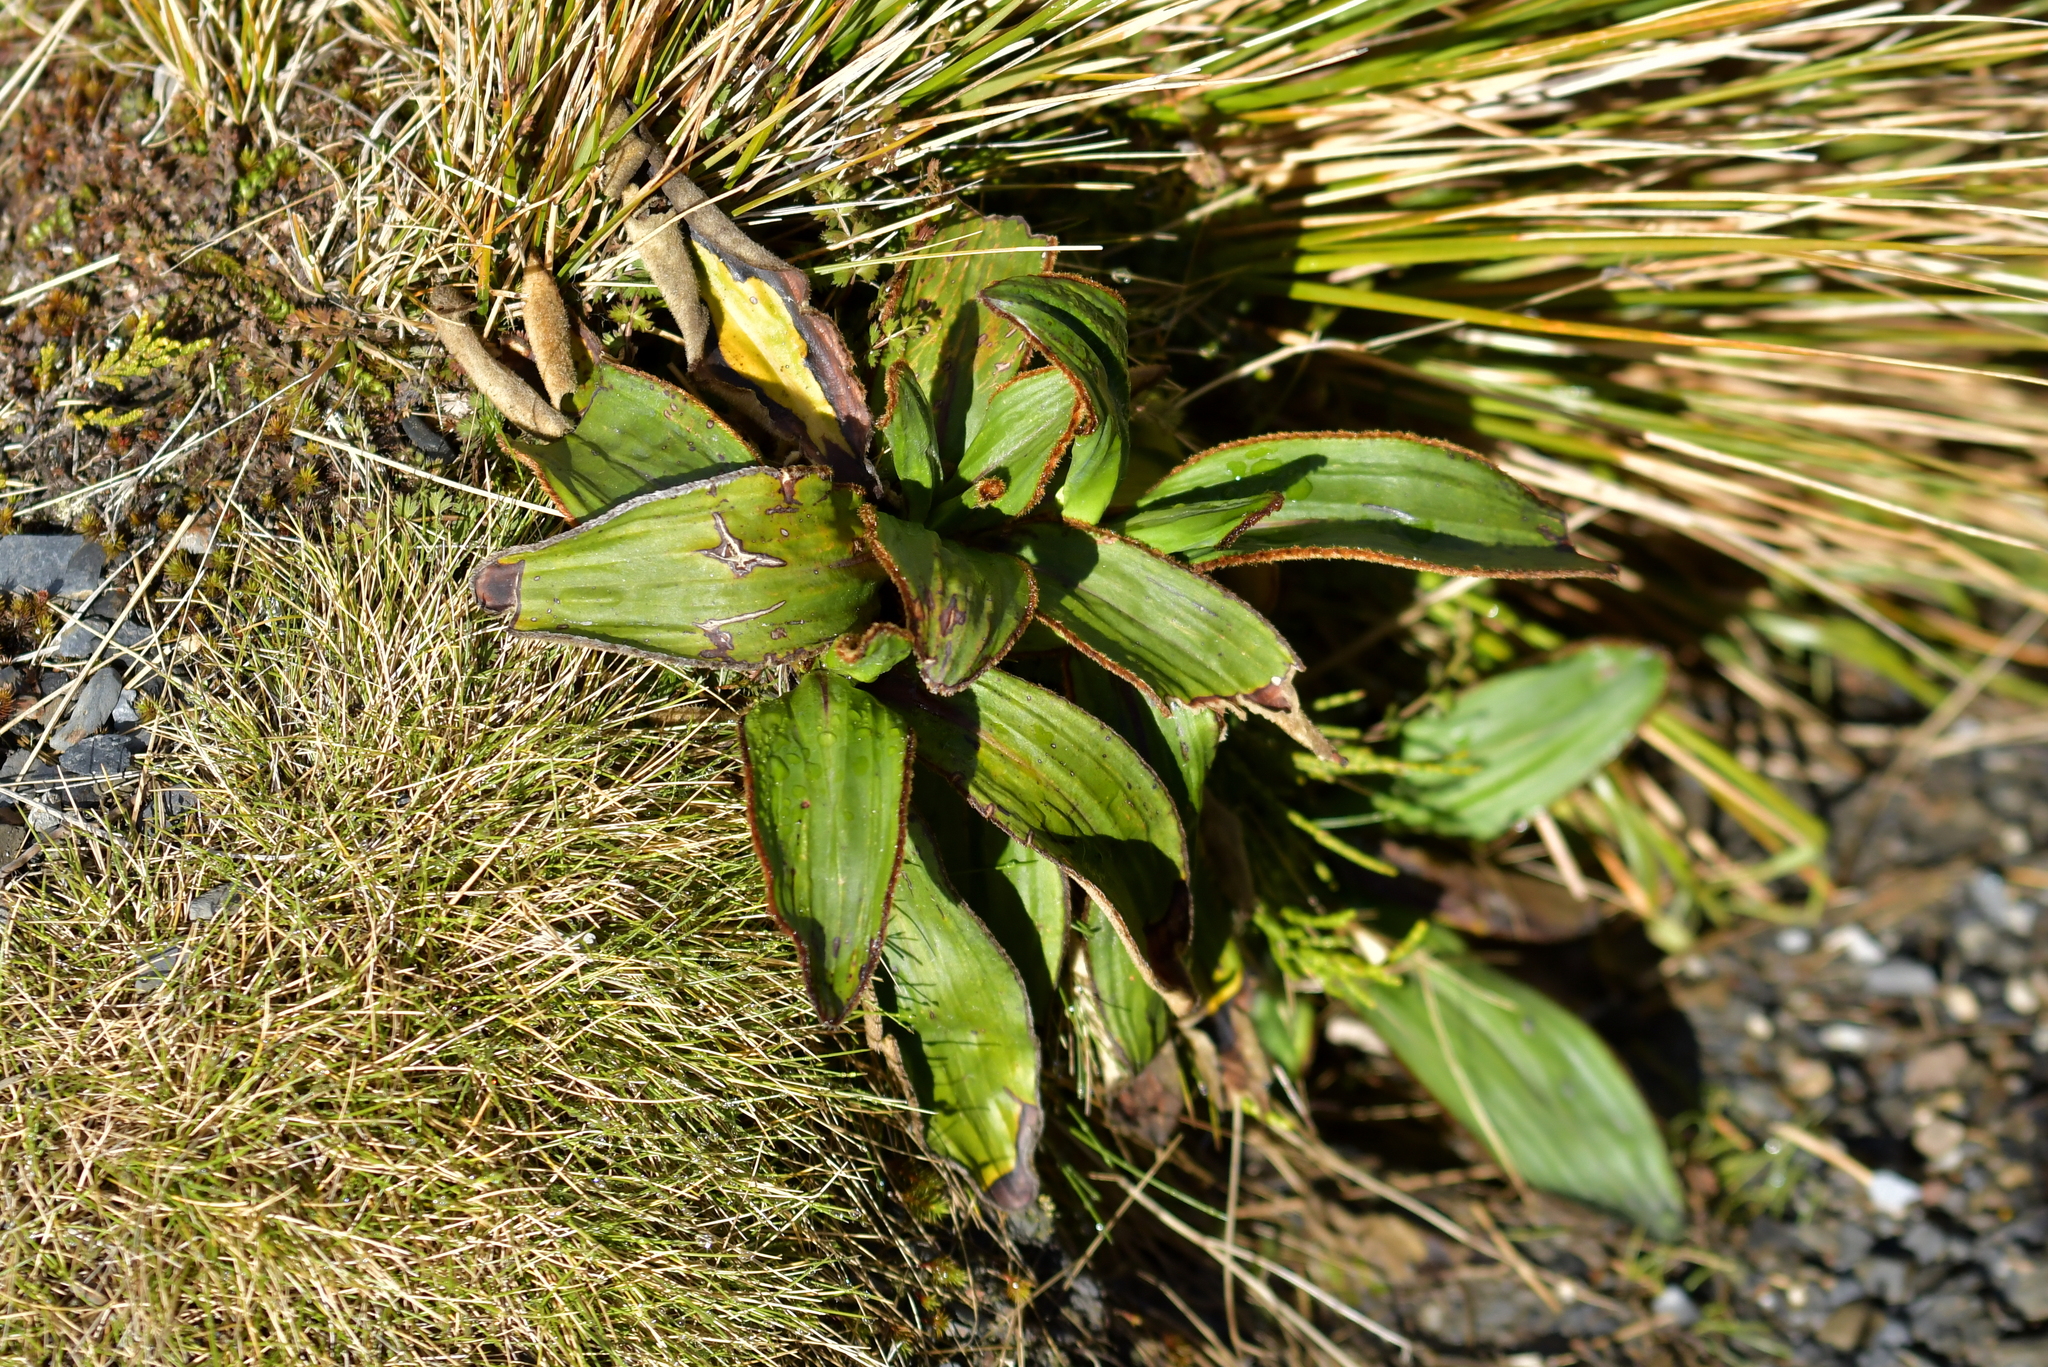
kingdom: Plantae
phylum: Tracheophyta
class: Magnoliopsida
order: Asterales
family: Asteraceae
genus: Celmisia
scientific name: Celmisia traversii
